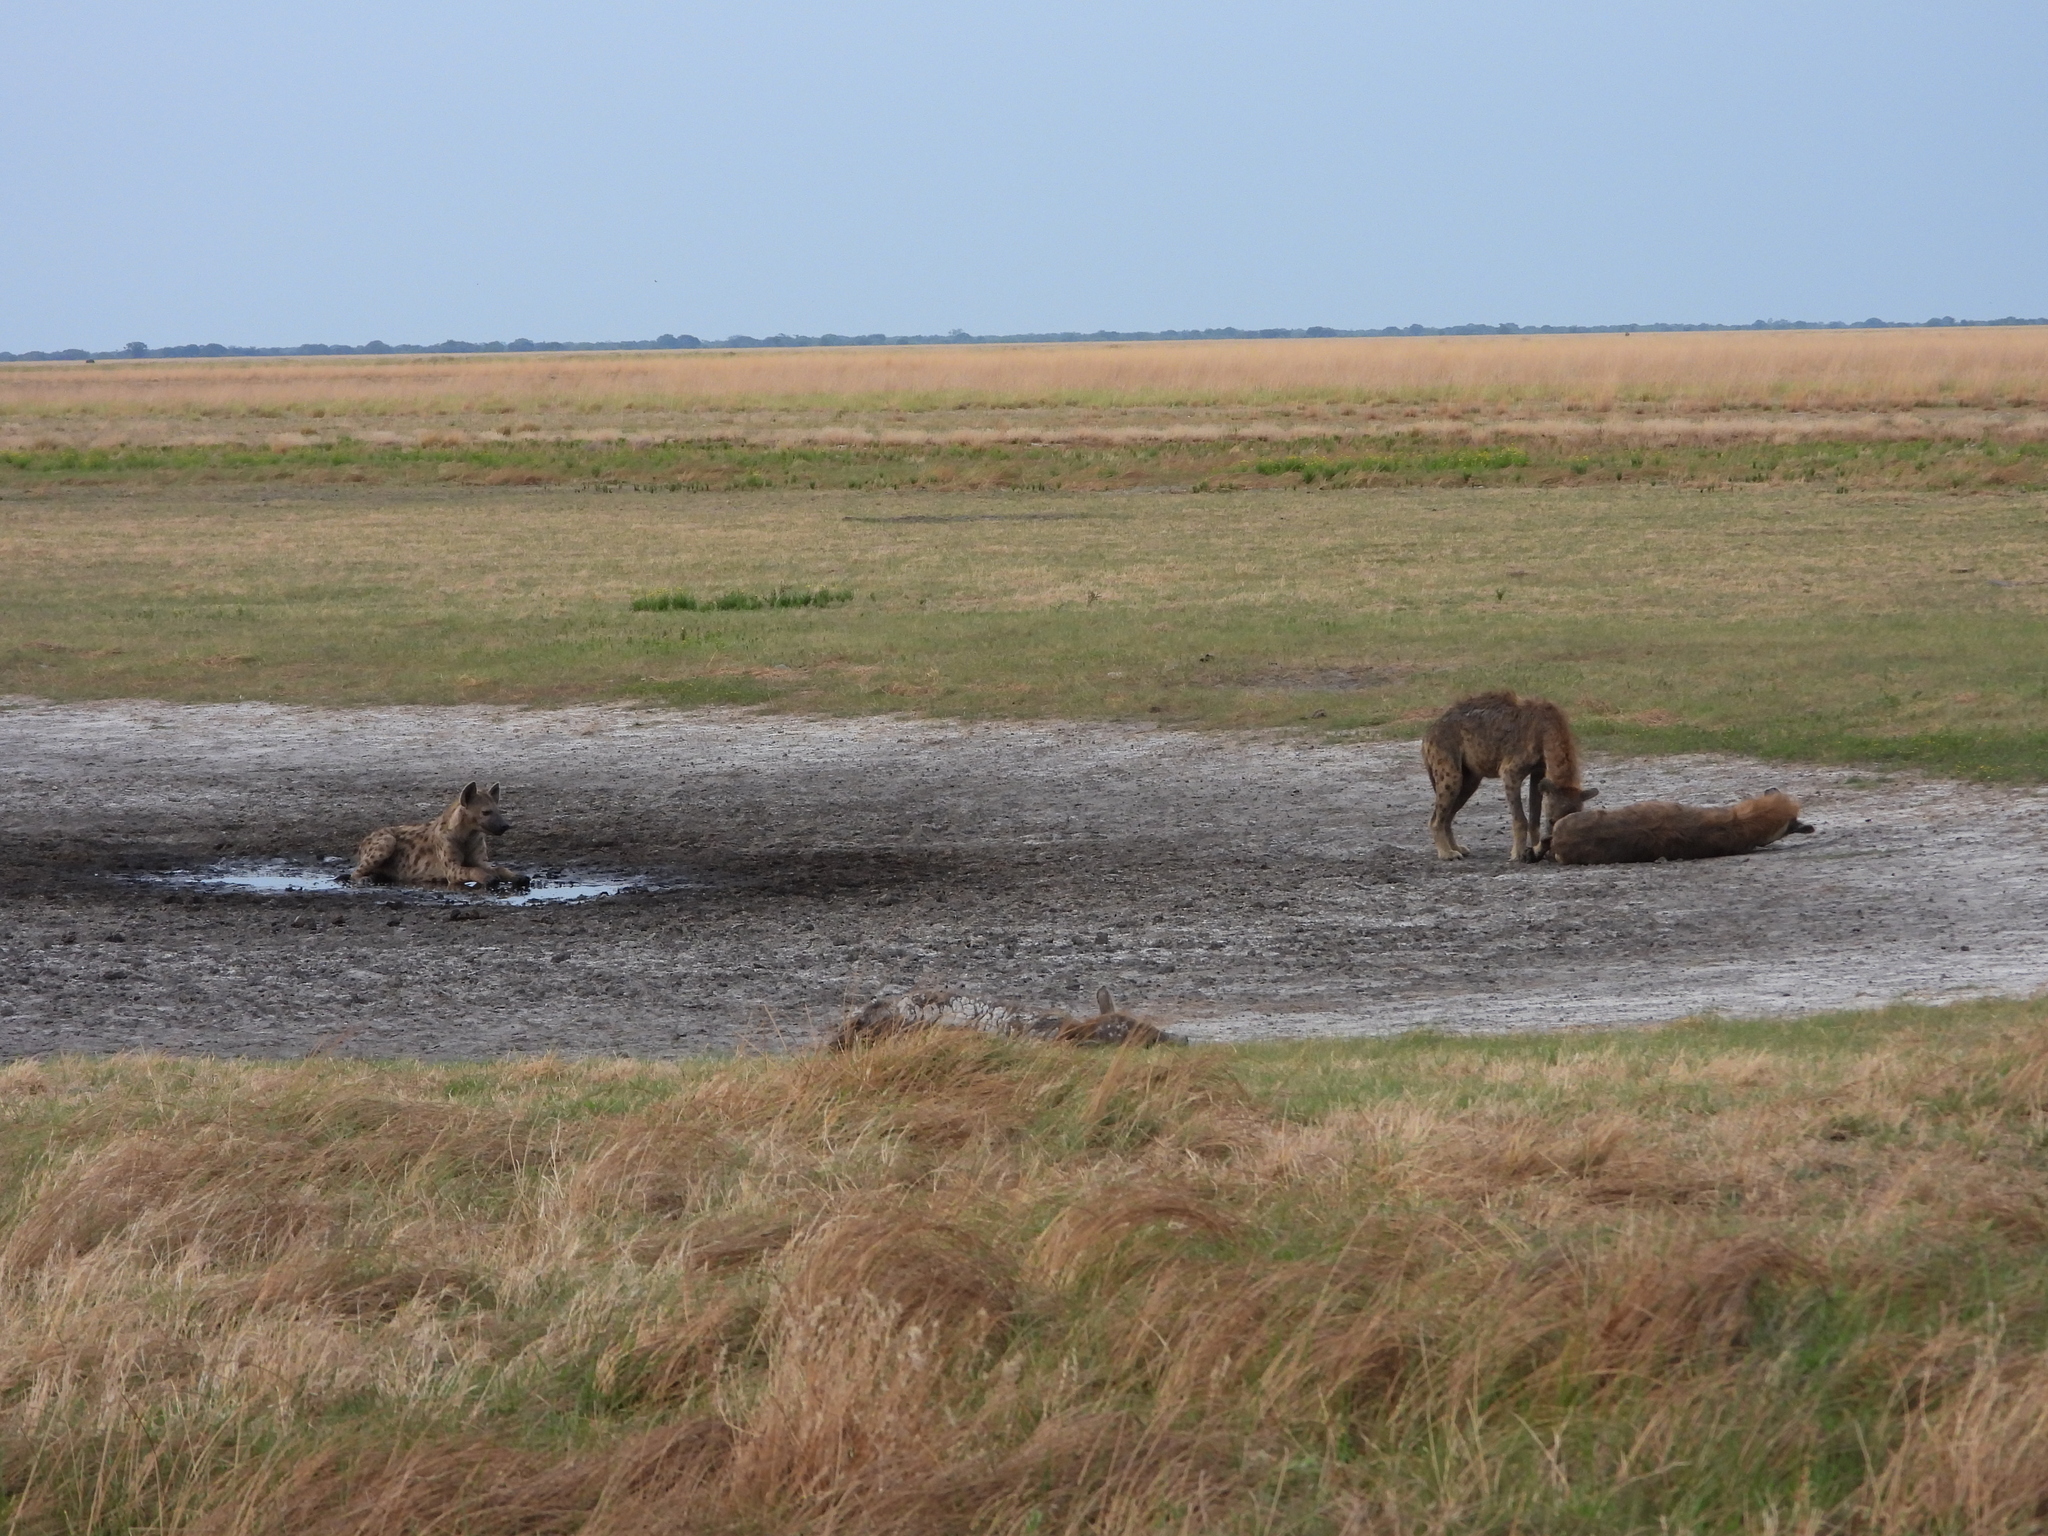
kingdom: Animalia
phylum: Chordata
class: Mammalia
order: Carnivora
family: Hyaenidae
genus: Crocuta
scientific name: Crocuta crocuta
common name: Spotted hyaena
